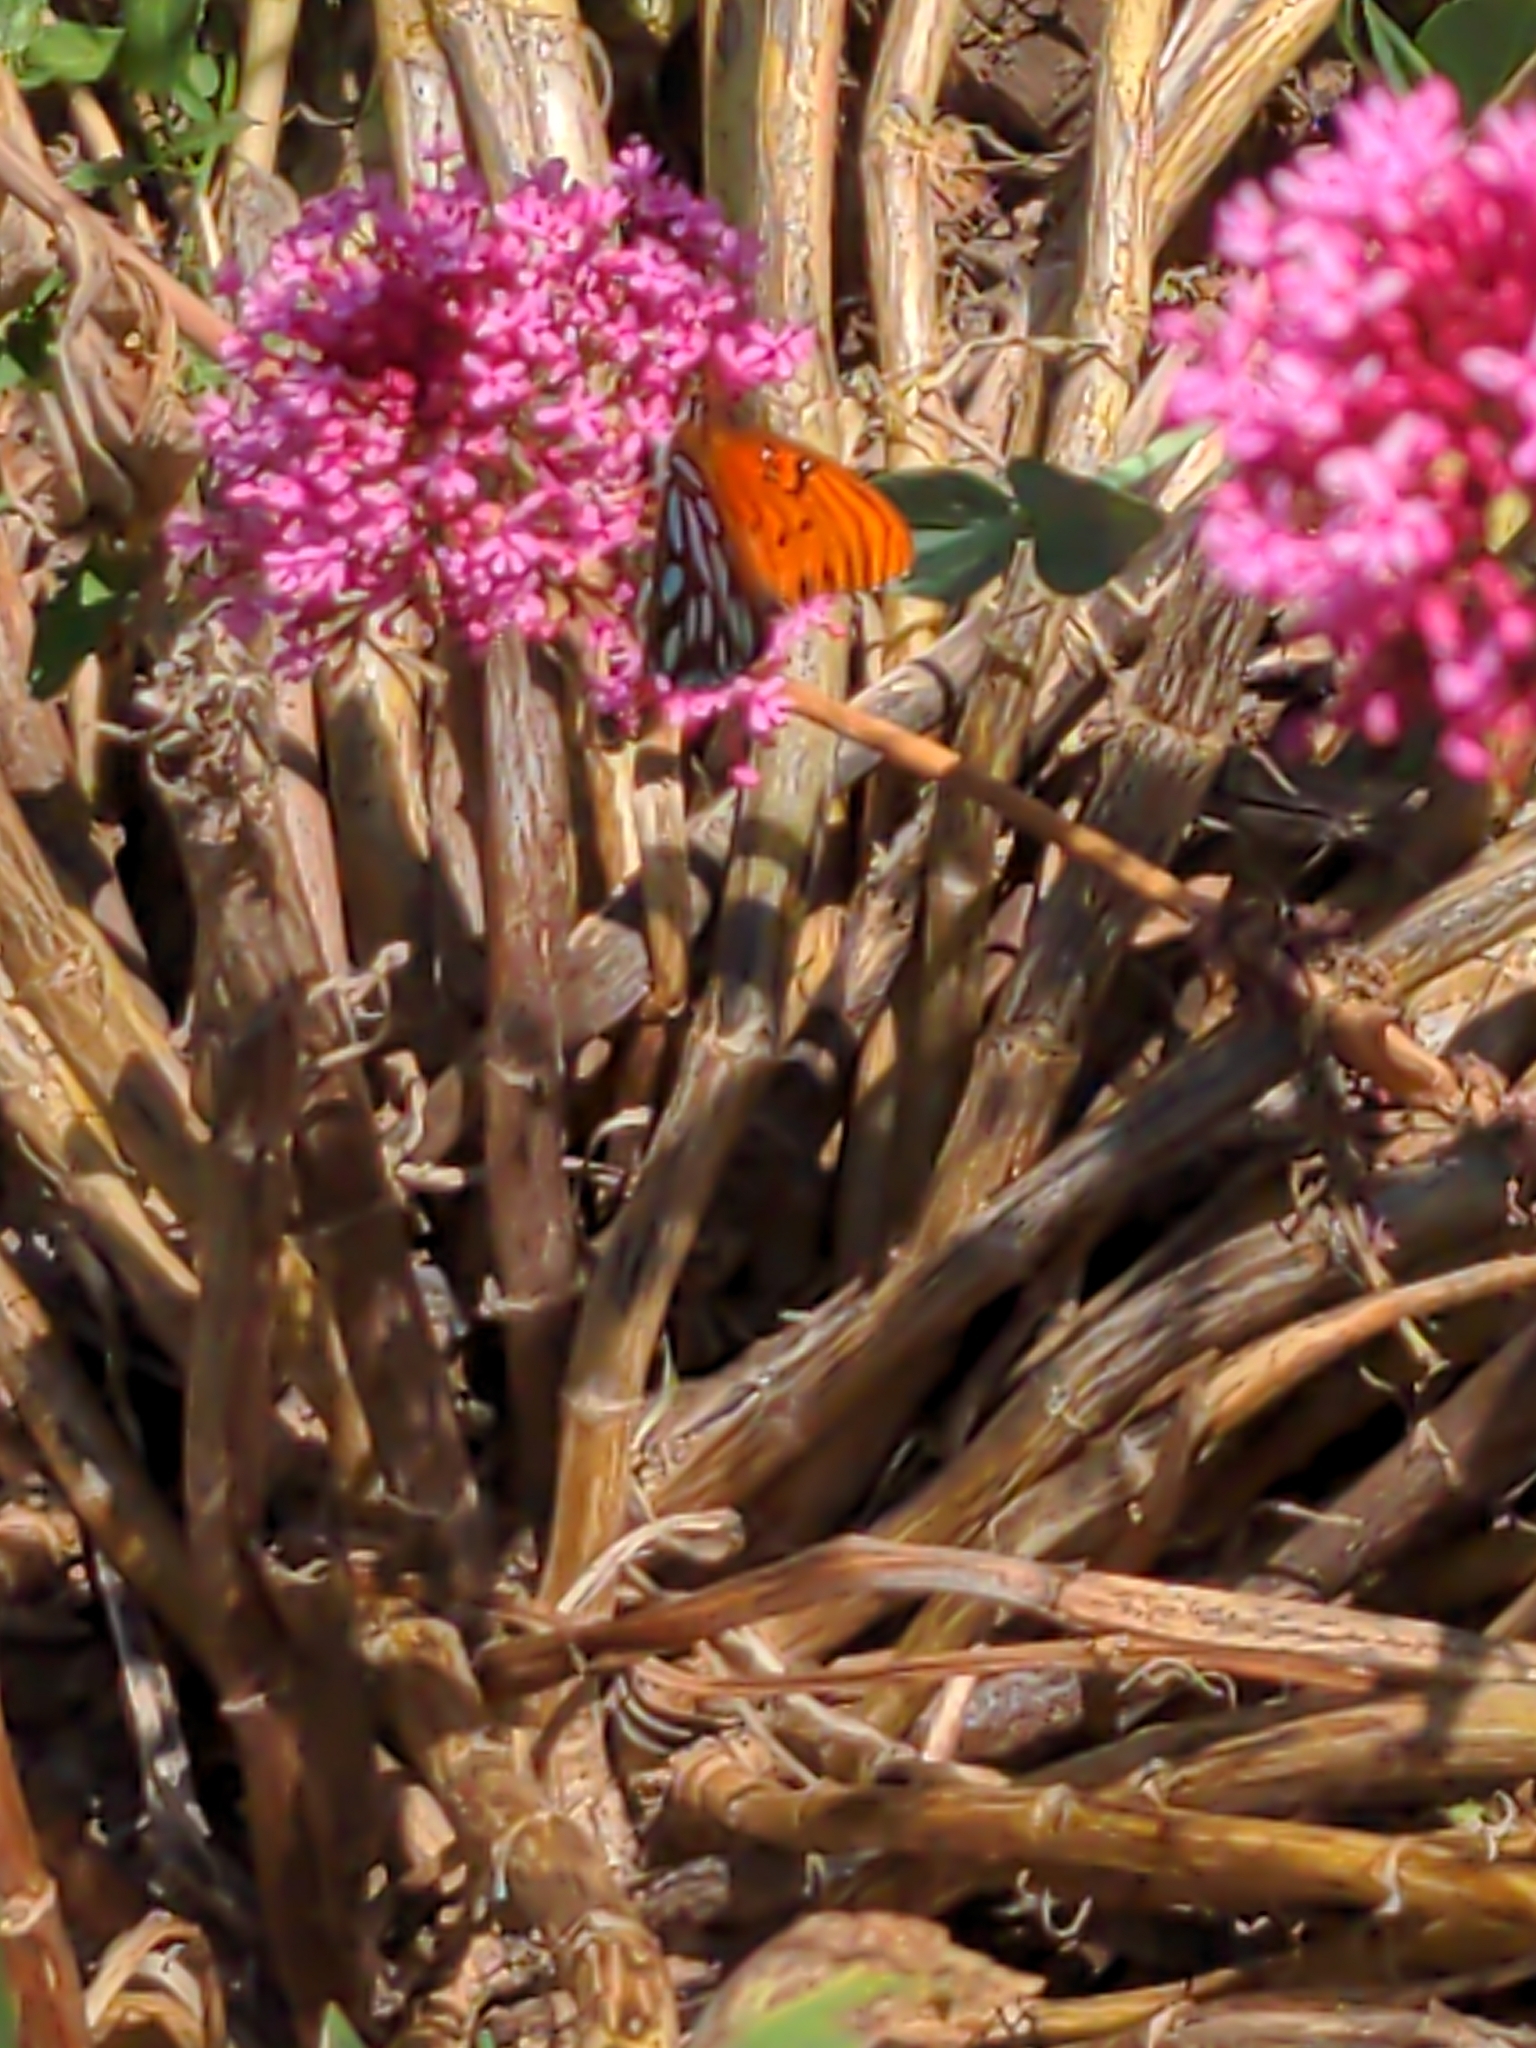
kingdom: Animalia
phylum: Arthropoda
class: Insecta
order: Lepidoptera
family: Nymphalidae
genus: Dione
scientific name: Dione vanillae
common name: Gulf fritillary
